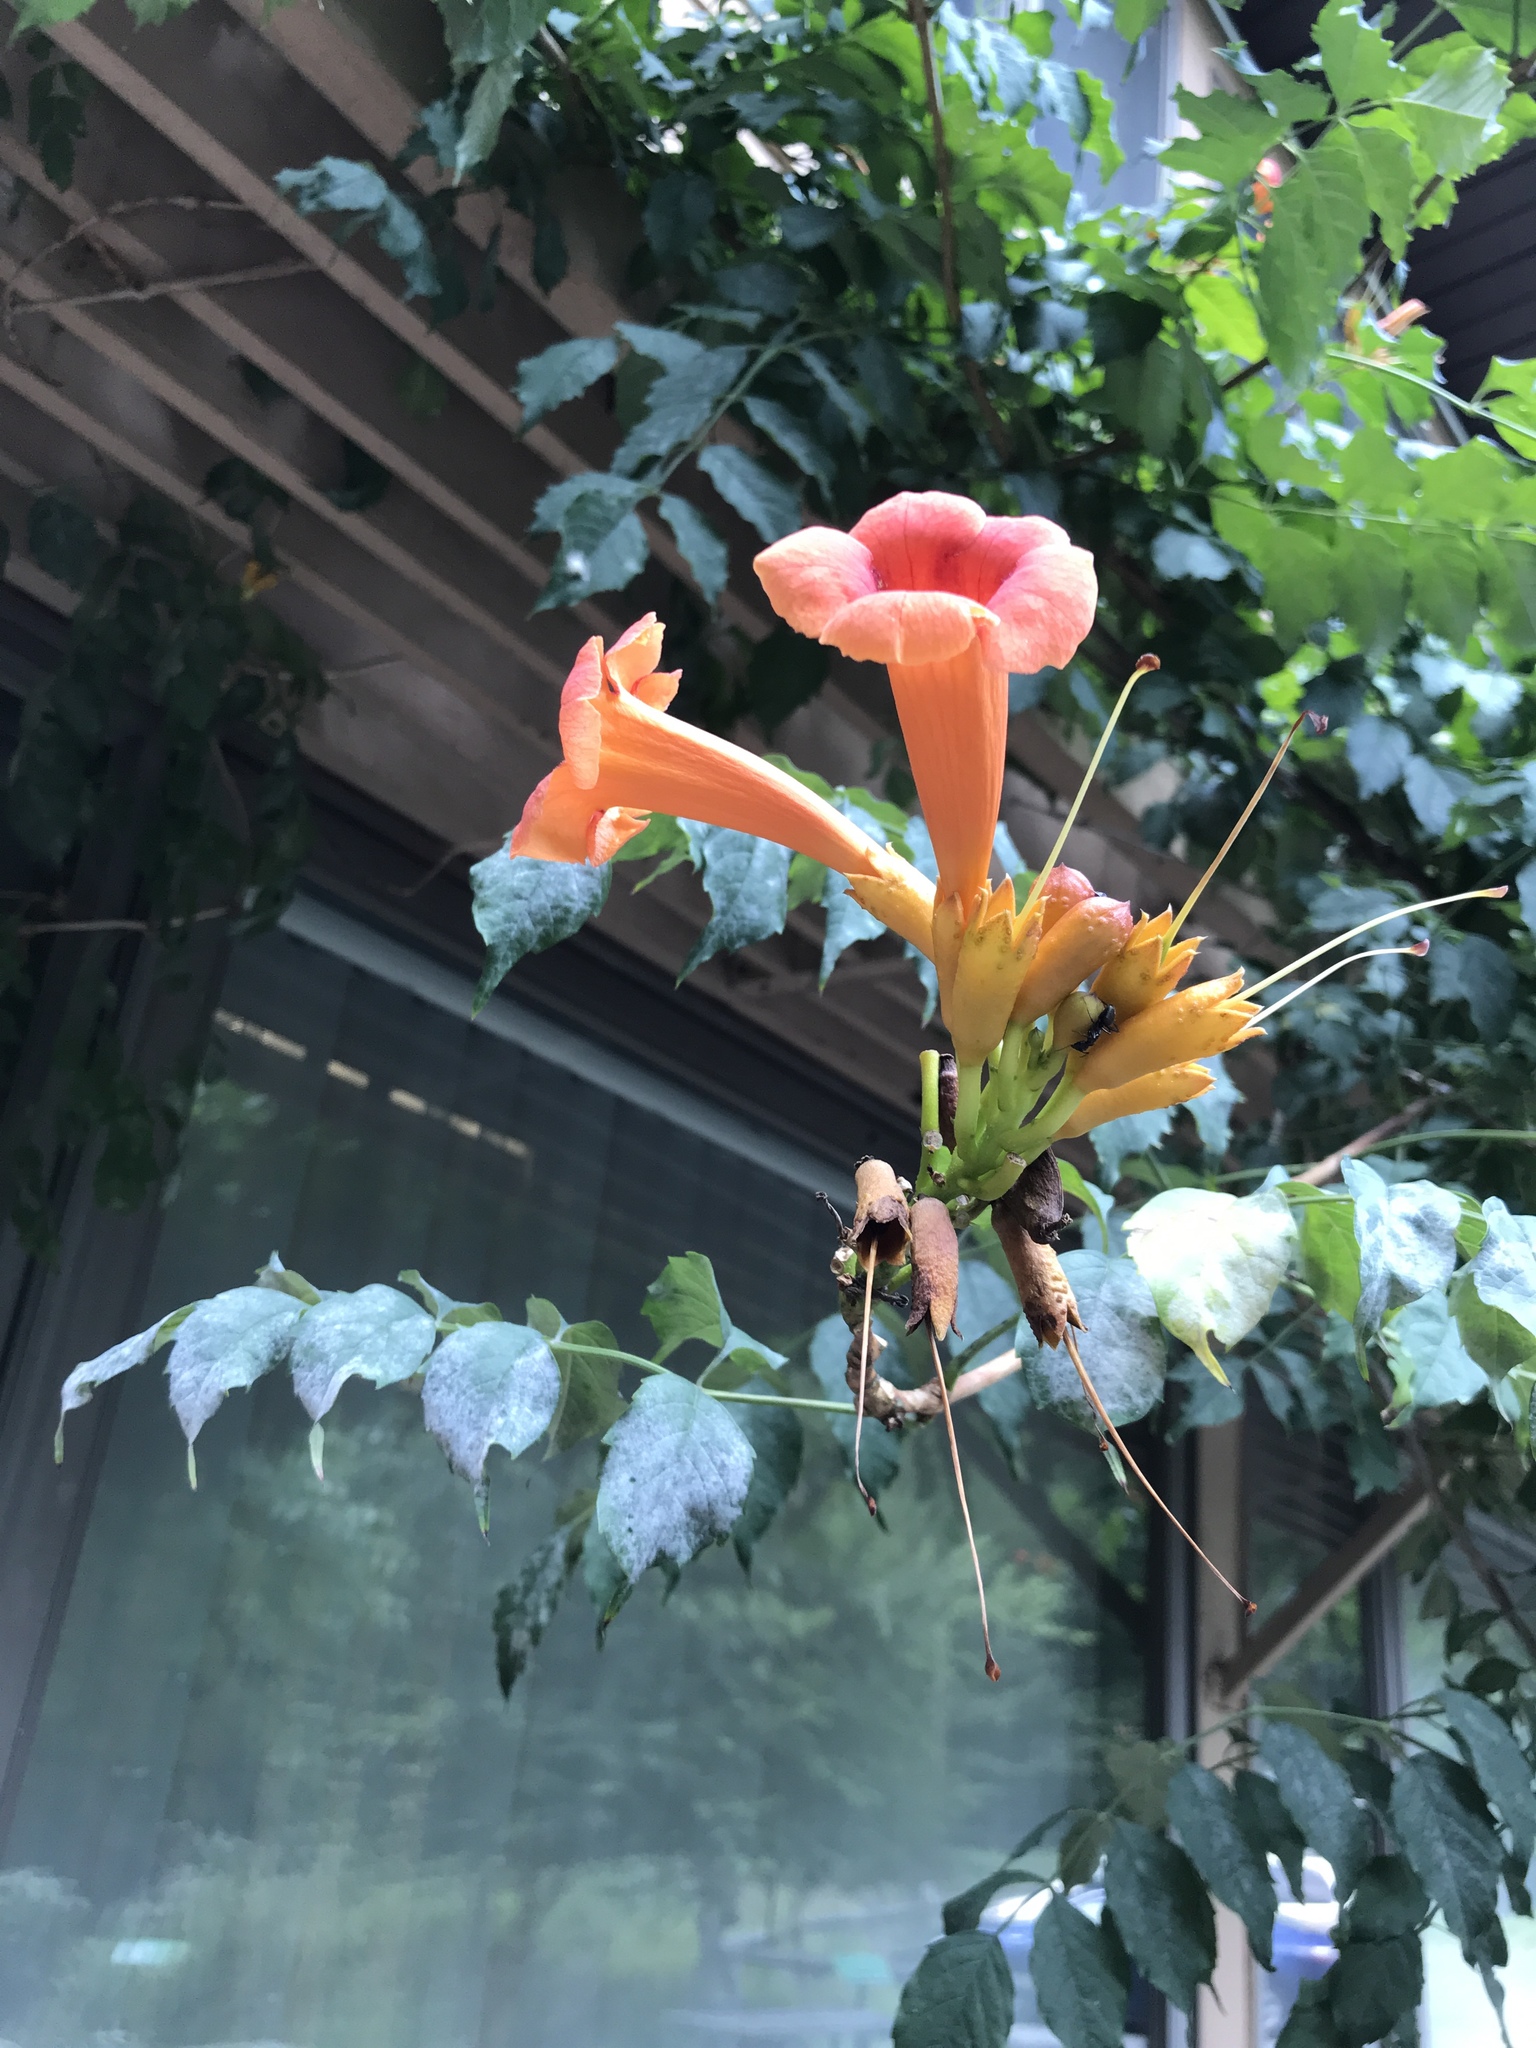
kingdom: Plantae
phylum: Tracheophyta
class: Magnoliopsida
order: Lamiales
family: Bignoniaceae
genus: Campsis
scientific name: Campsis radicans
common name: Trumpet-creeper
